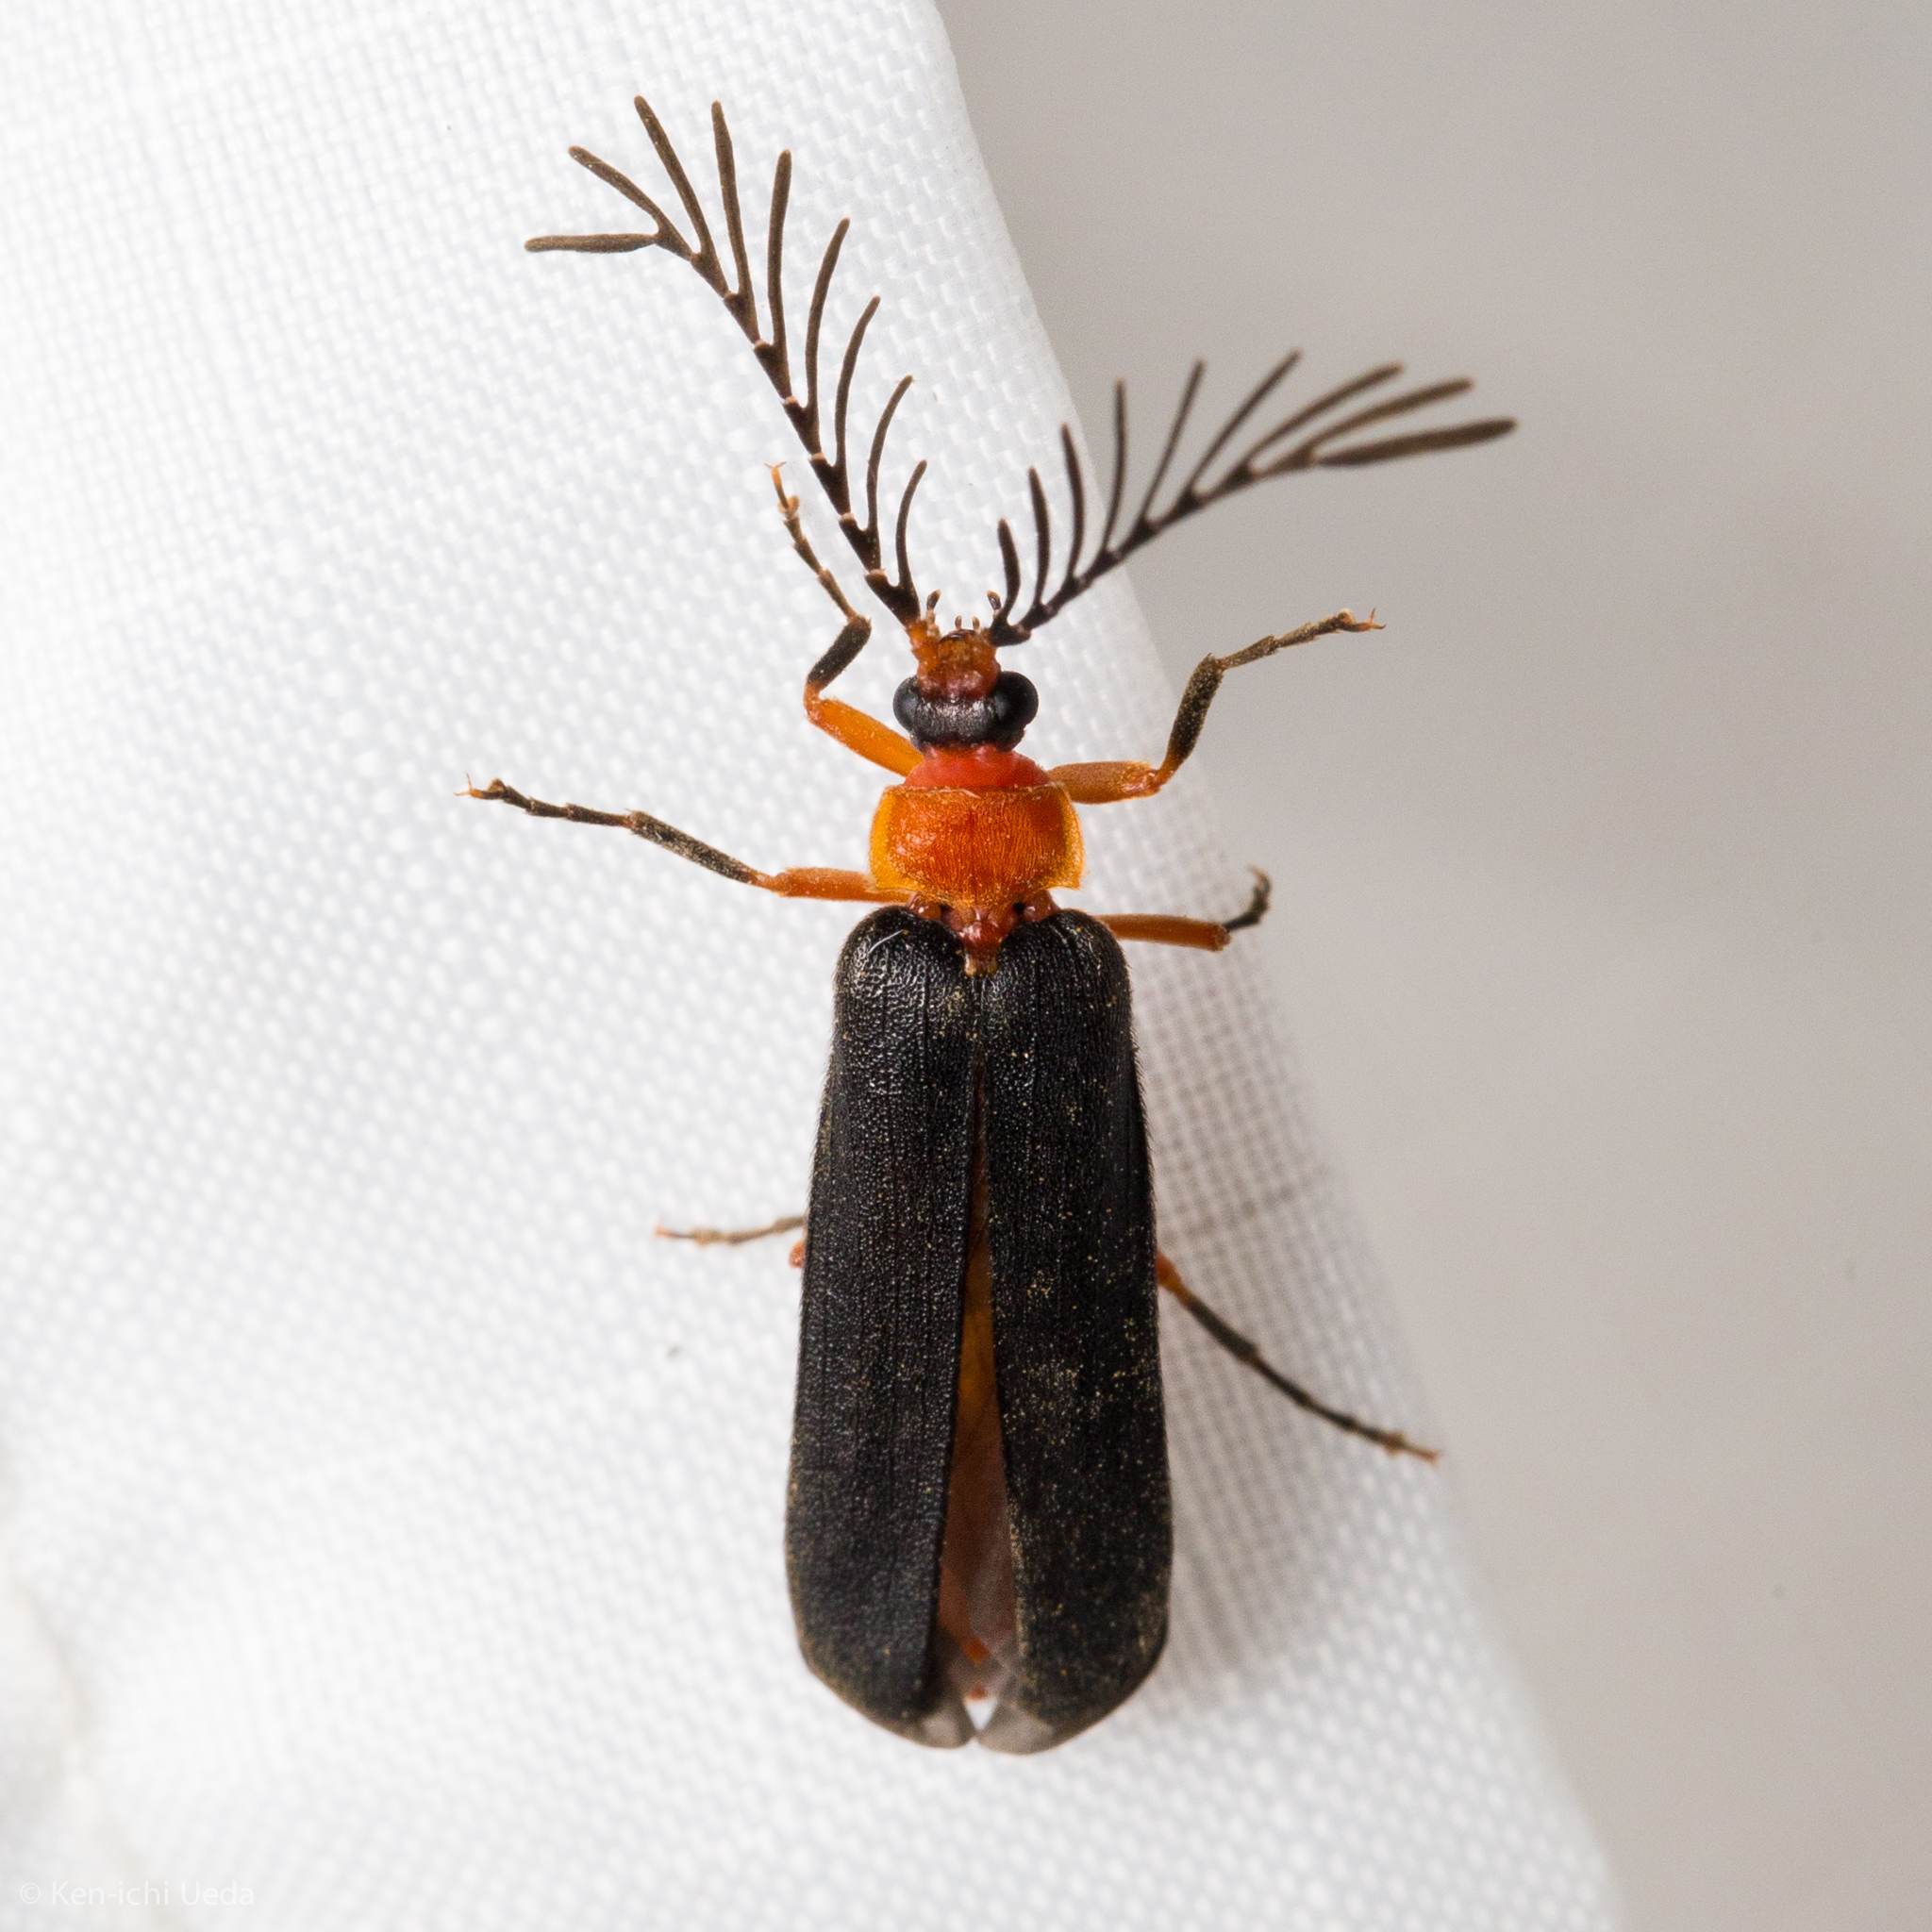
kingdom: Animalia
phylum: Arthropoda
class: Insecta
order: Coleoptera
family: Lampyridae
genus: Pterotus
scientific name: Pterotus obscuripennis
